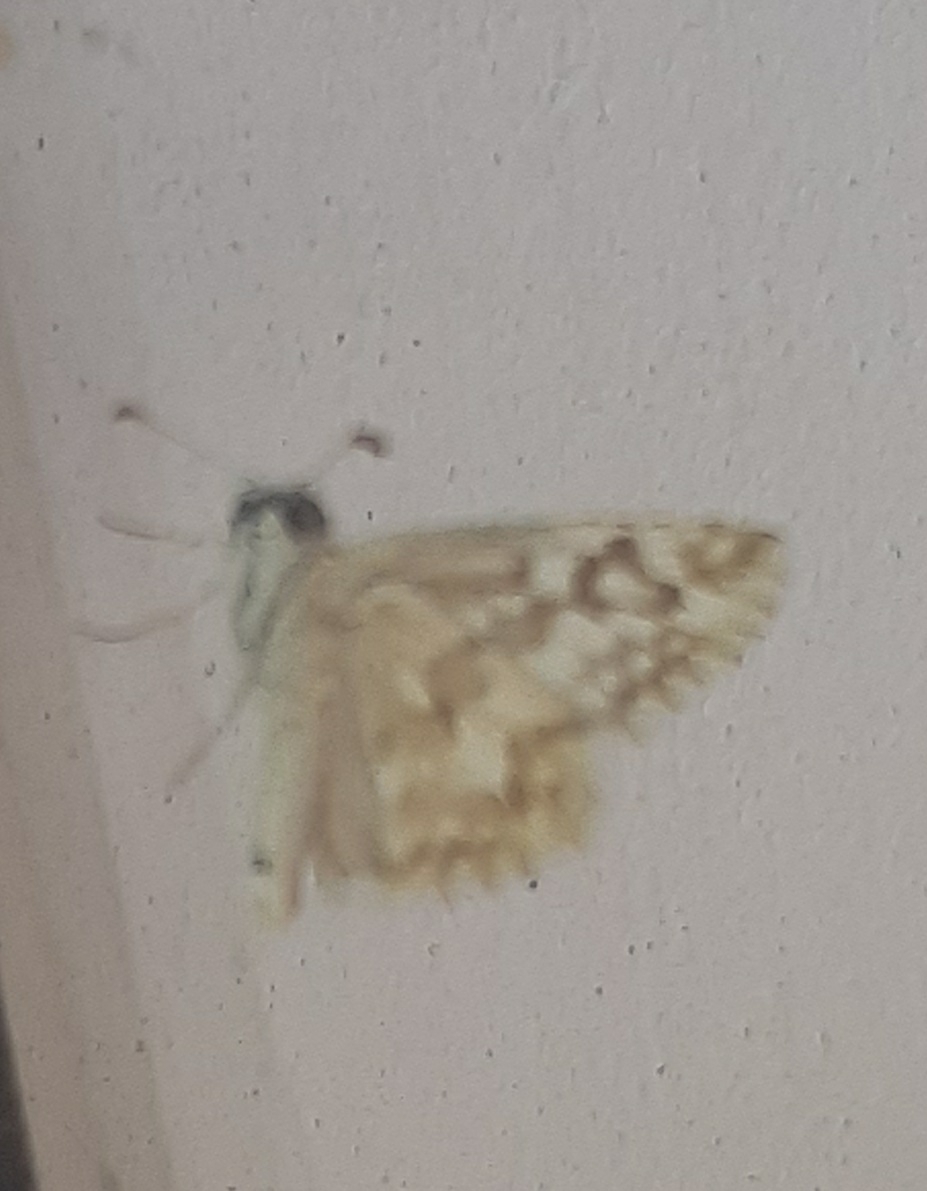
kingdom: Animalia
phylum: Arthropoda
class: Insecta
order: Lepidoptera
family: Hesperiidae
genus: Heliopetes
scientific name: Heliopetes americanus
